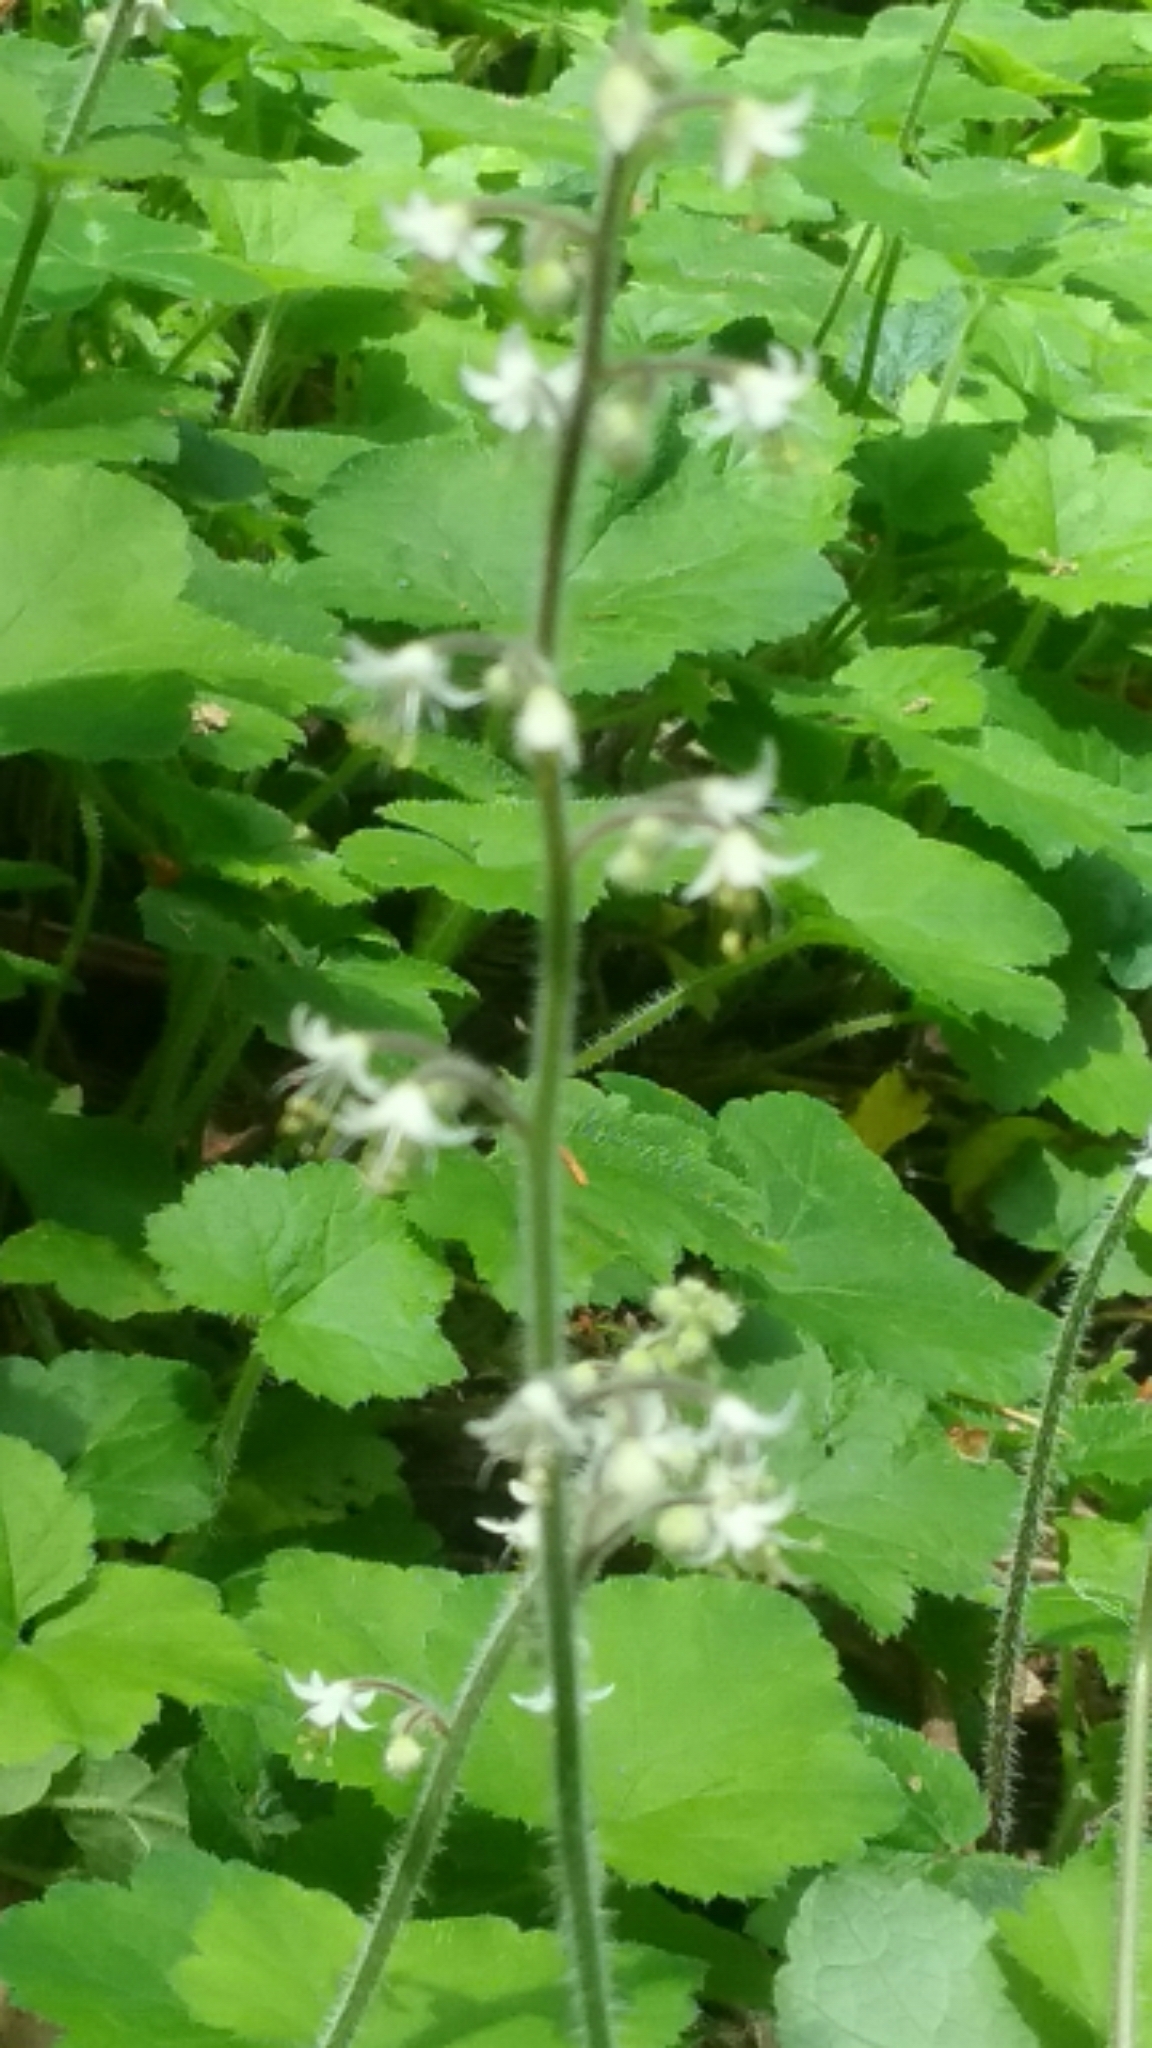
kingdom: Plantae
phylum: Tracheophyta
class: Magnoliopsida
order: Saxifragales
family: Saxifragaceae
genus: Tiarella
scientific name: Tiarella trifoliata
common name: Sugar-scoop
